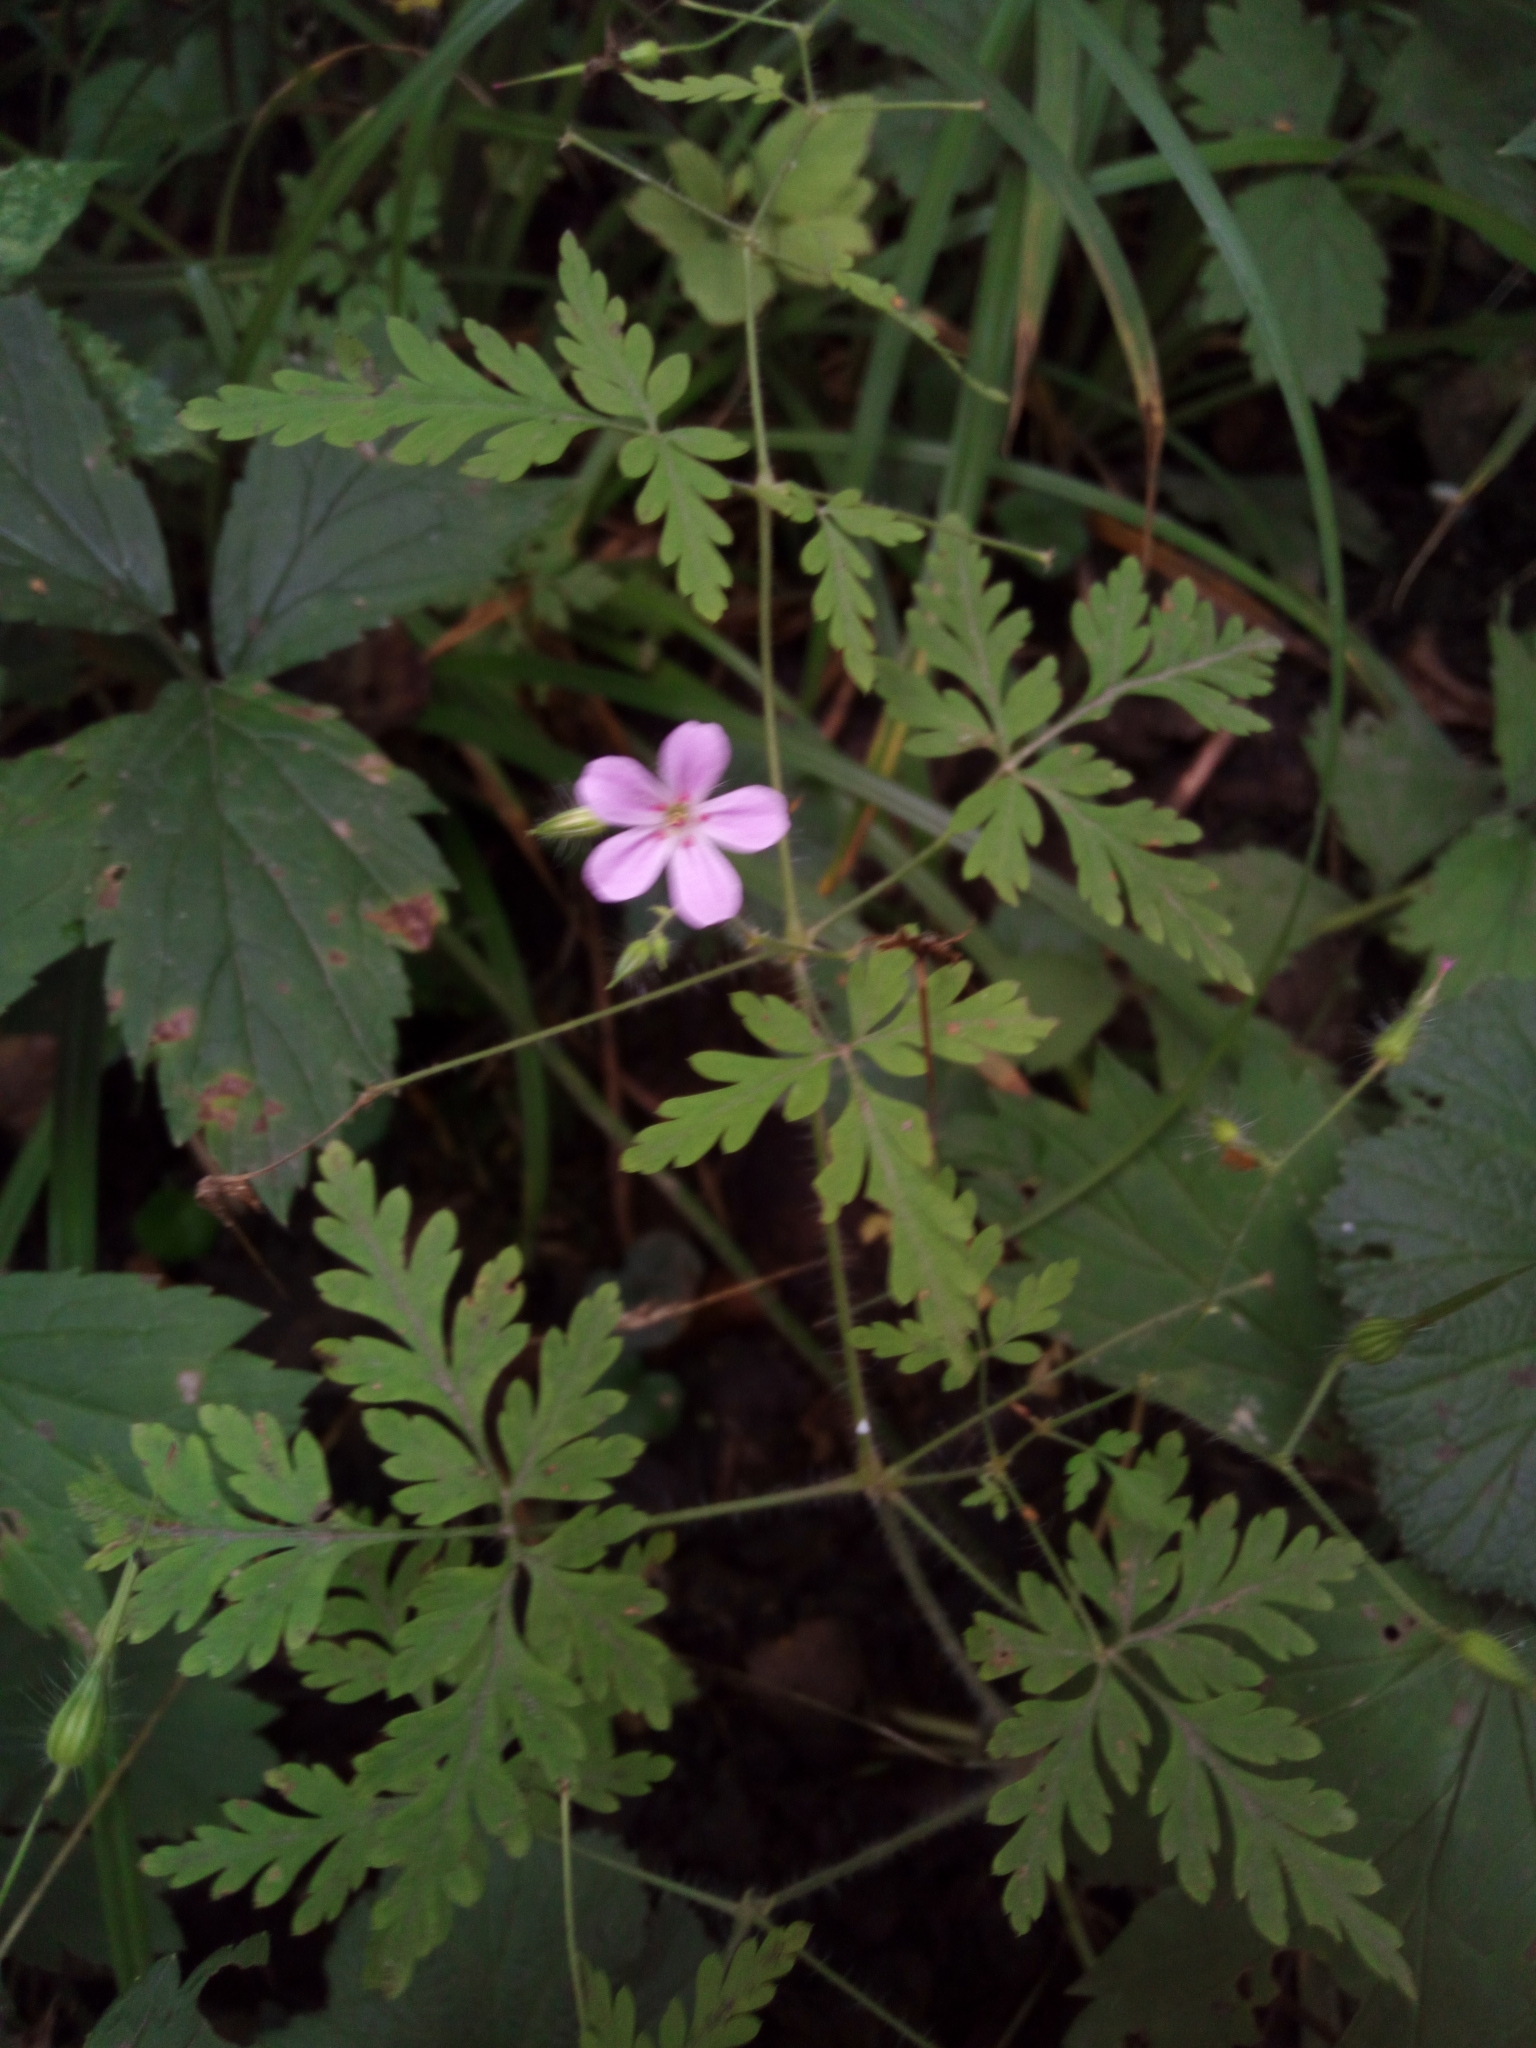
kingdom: Plantae
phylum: Tracheophyta
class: Magnoliopsida
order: Geraniales
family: Geraniaceae
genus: Geranium
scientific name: Geranium robertianum
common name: Herb-robert
